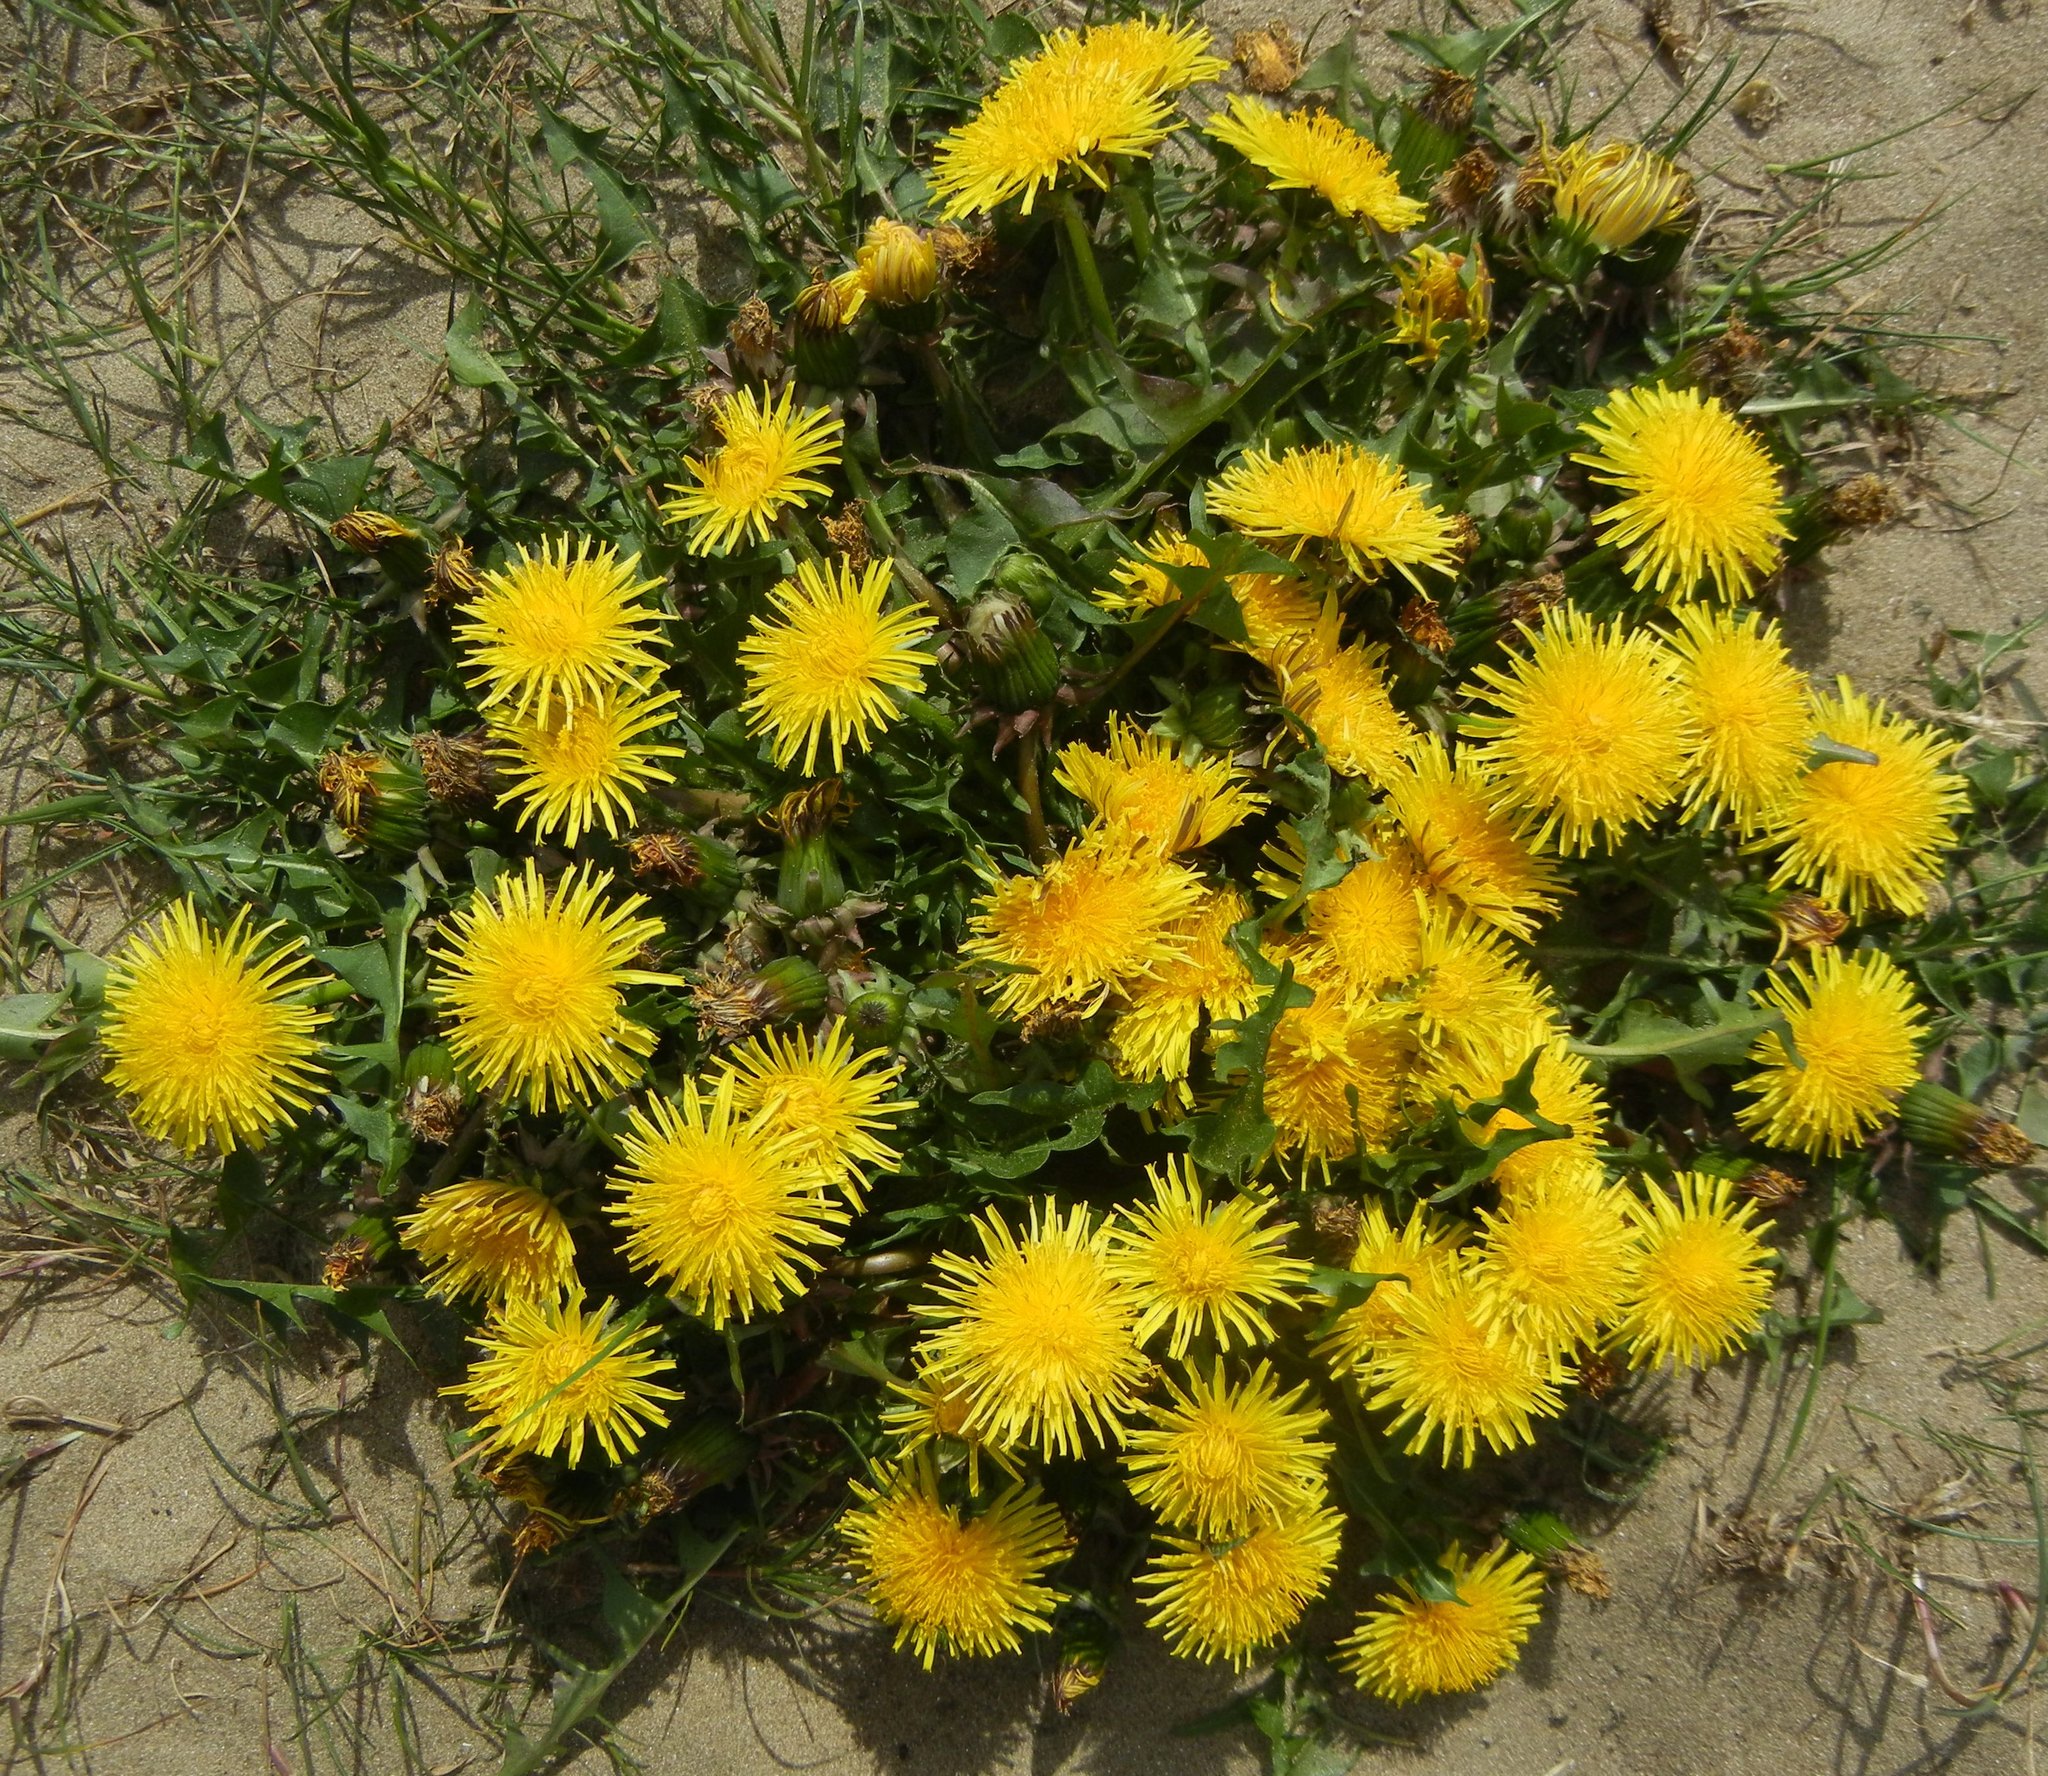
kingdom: Plantae
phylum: Tracheophyta
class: Magnoliopsida
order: Asterales
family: Asteraceae
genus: Taraxacum
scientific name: Taraxacum officinale
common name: Common dandelion
